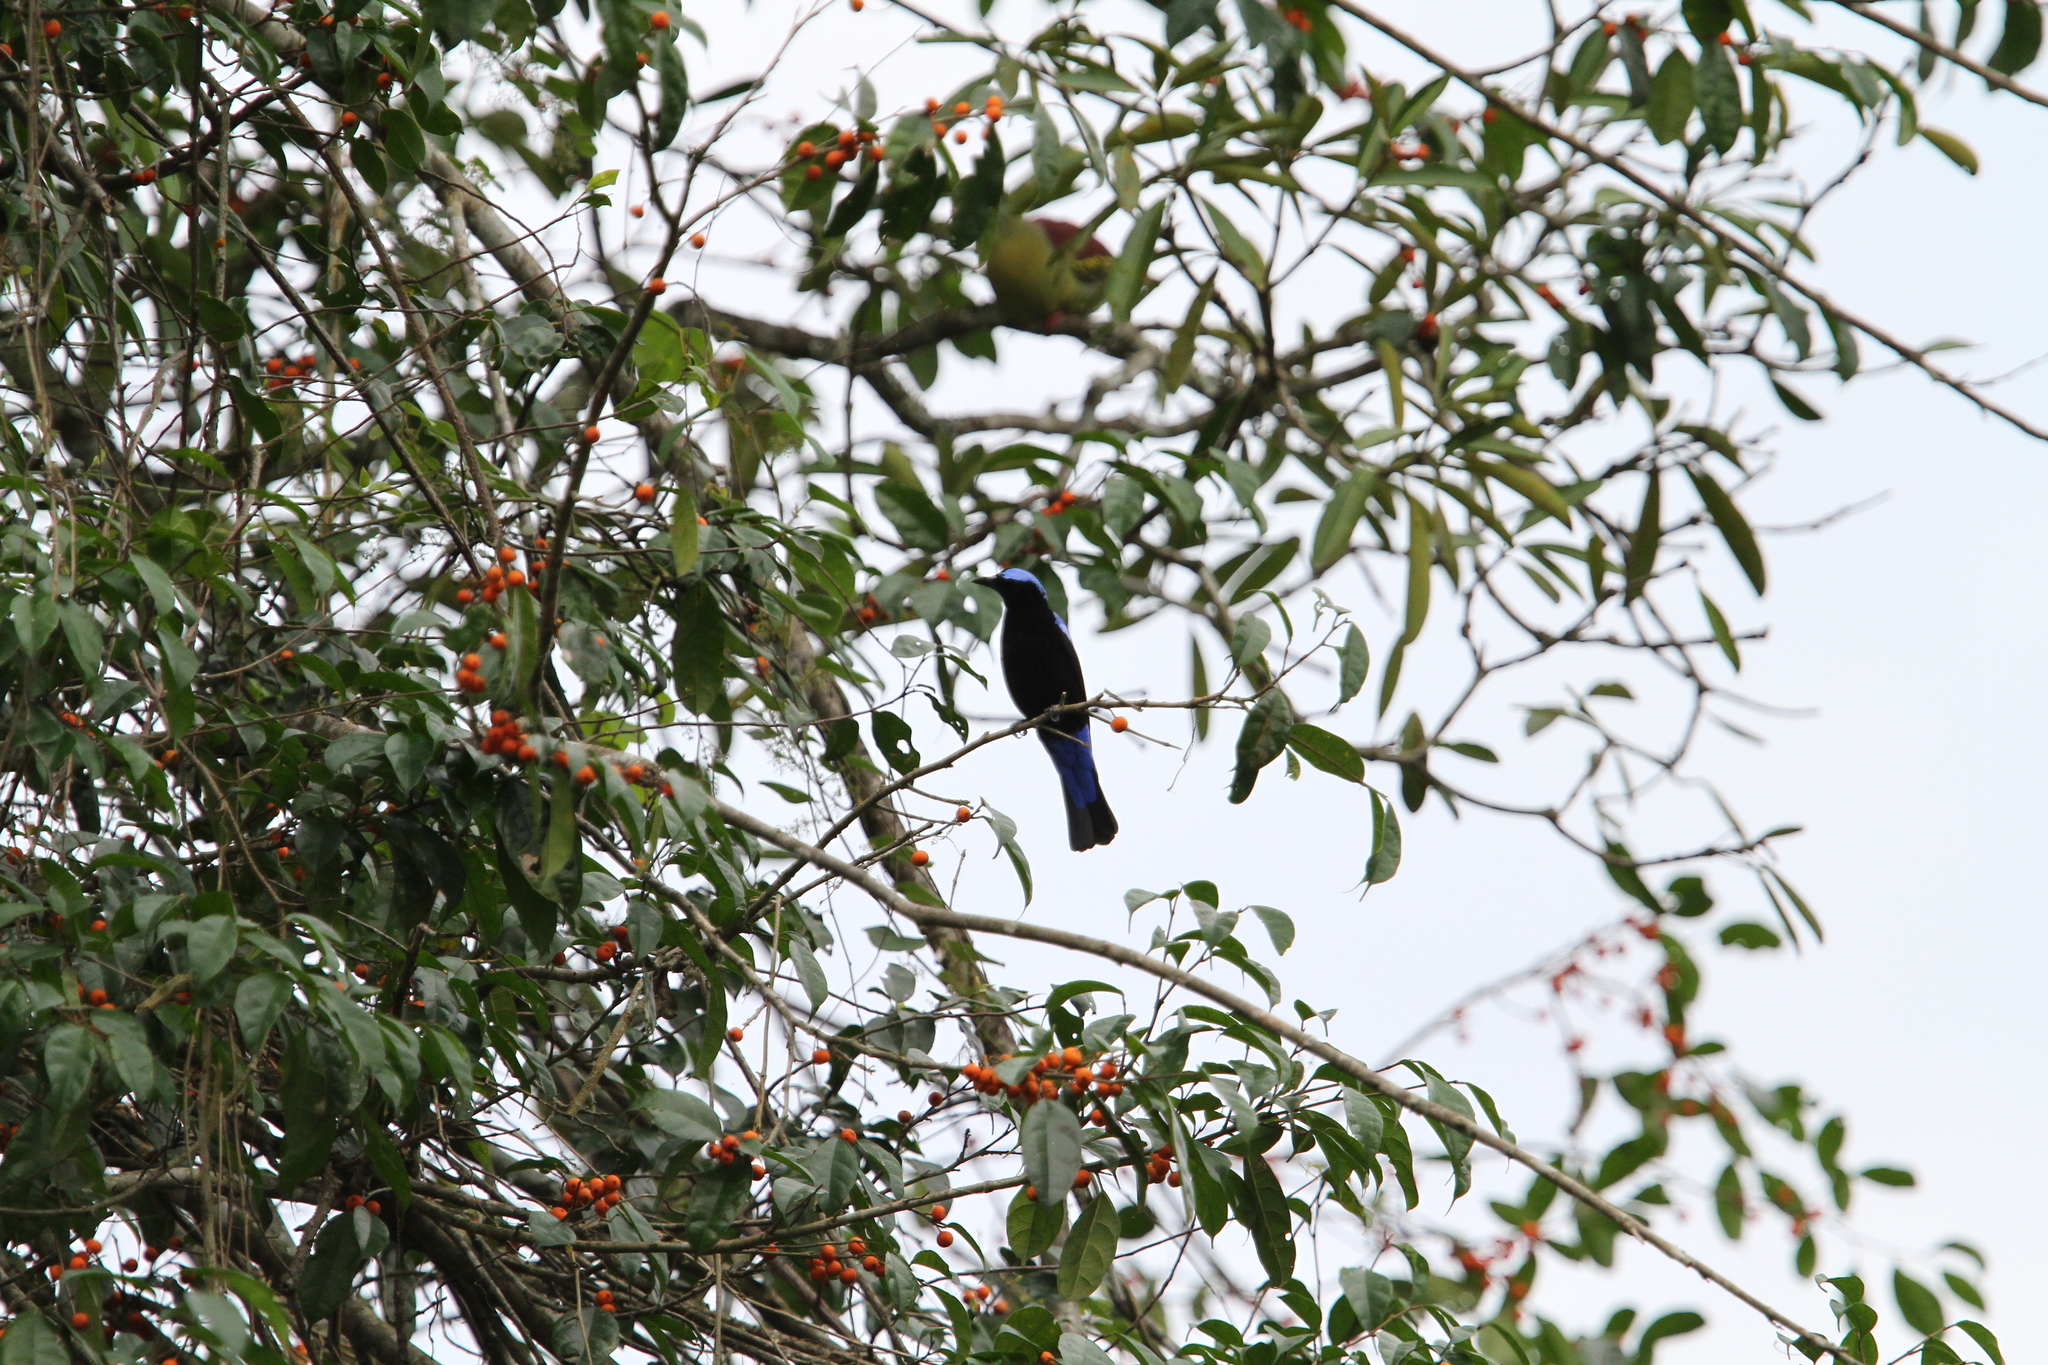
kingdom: Animalia
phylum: Chordata
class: Aves
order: Passeriformes
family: Irenidae
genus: Irena
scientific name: Irena puella
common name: Asian fairy-bluebird
